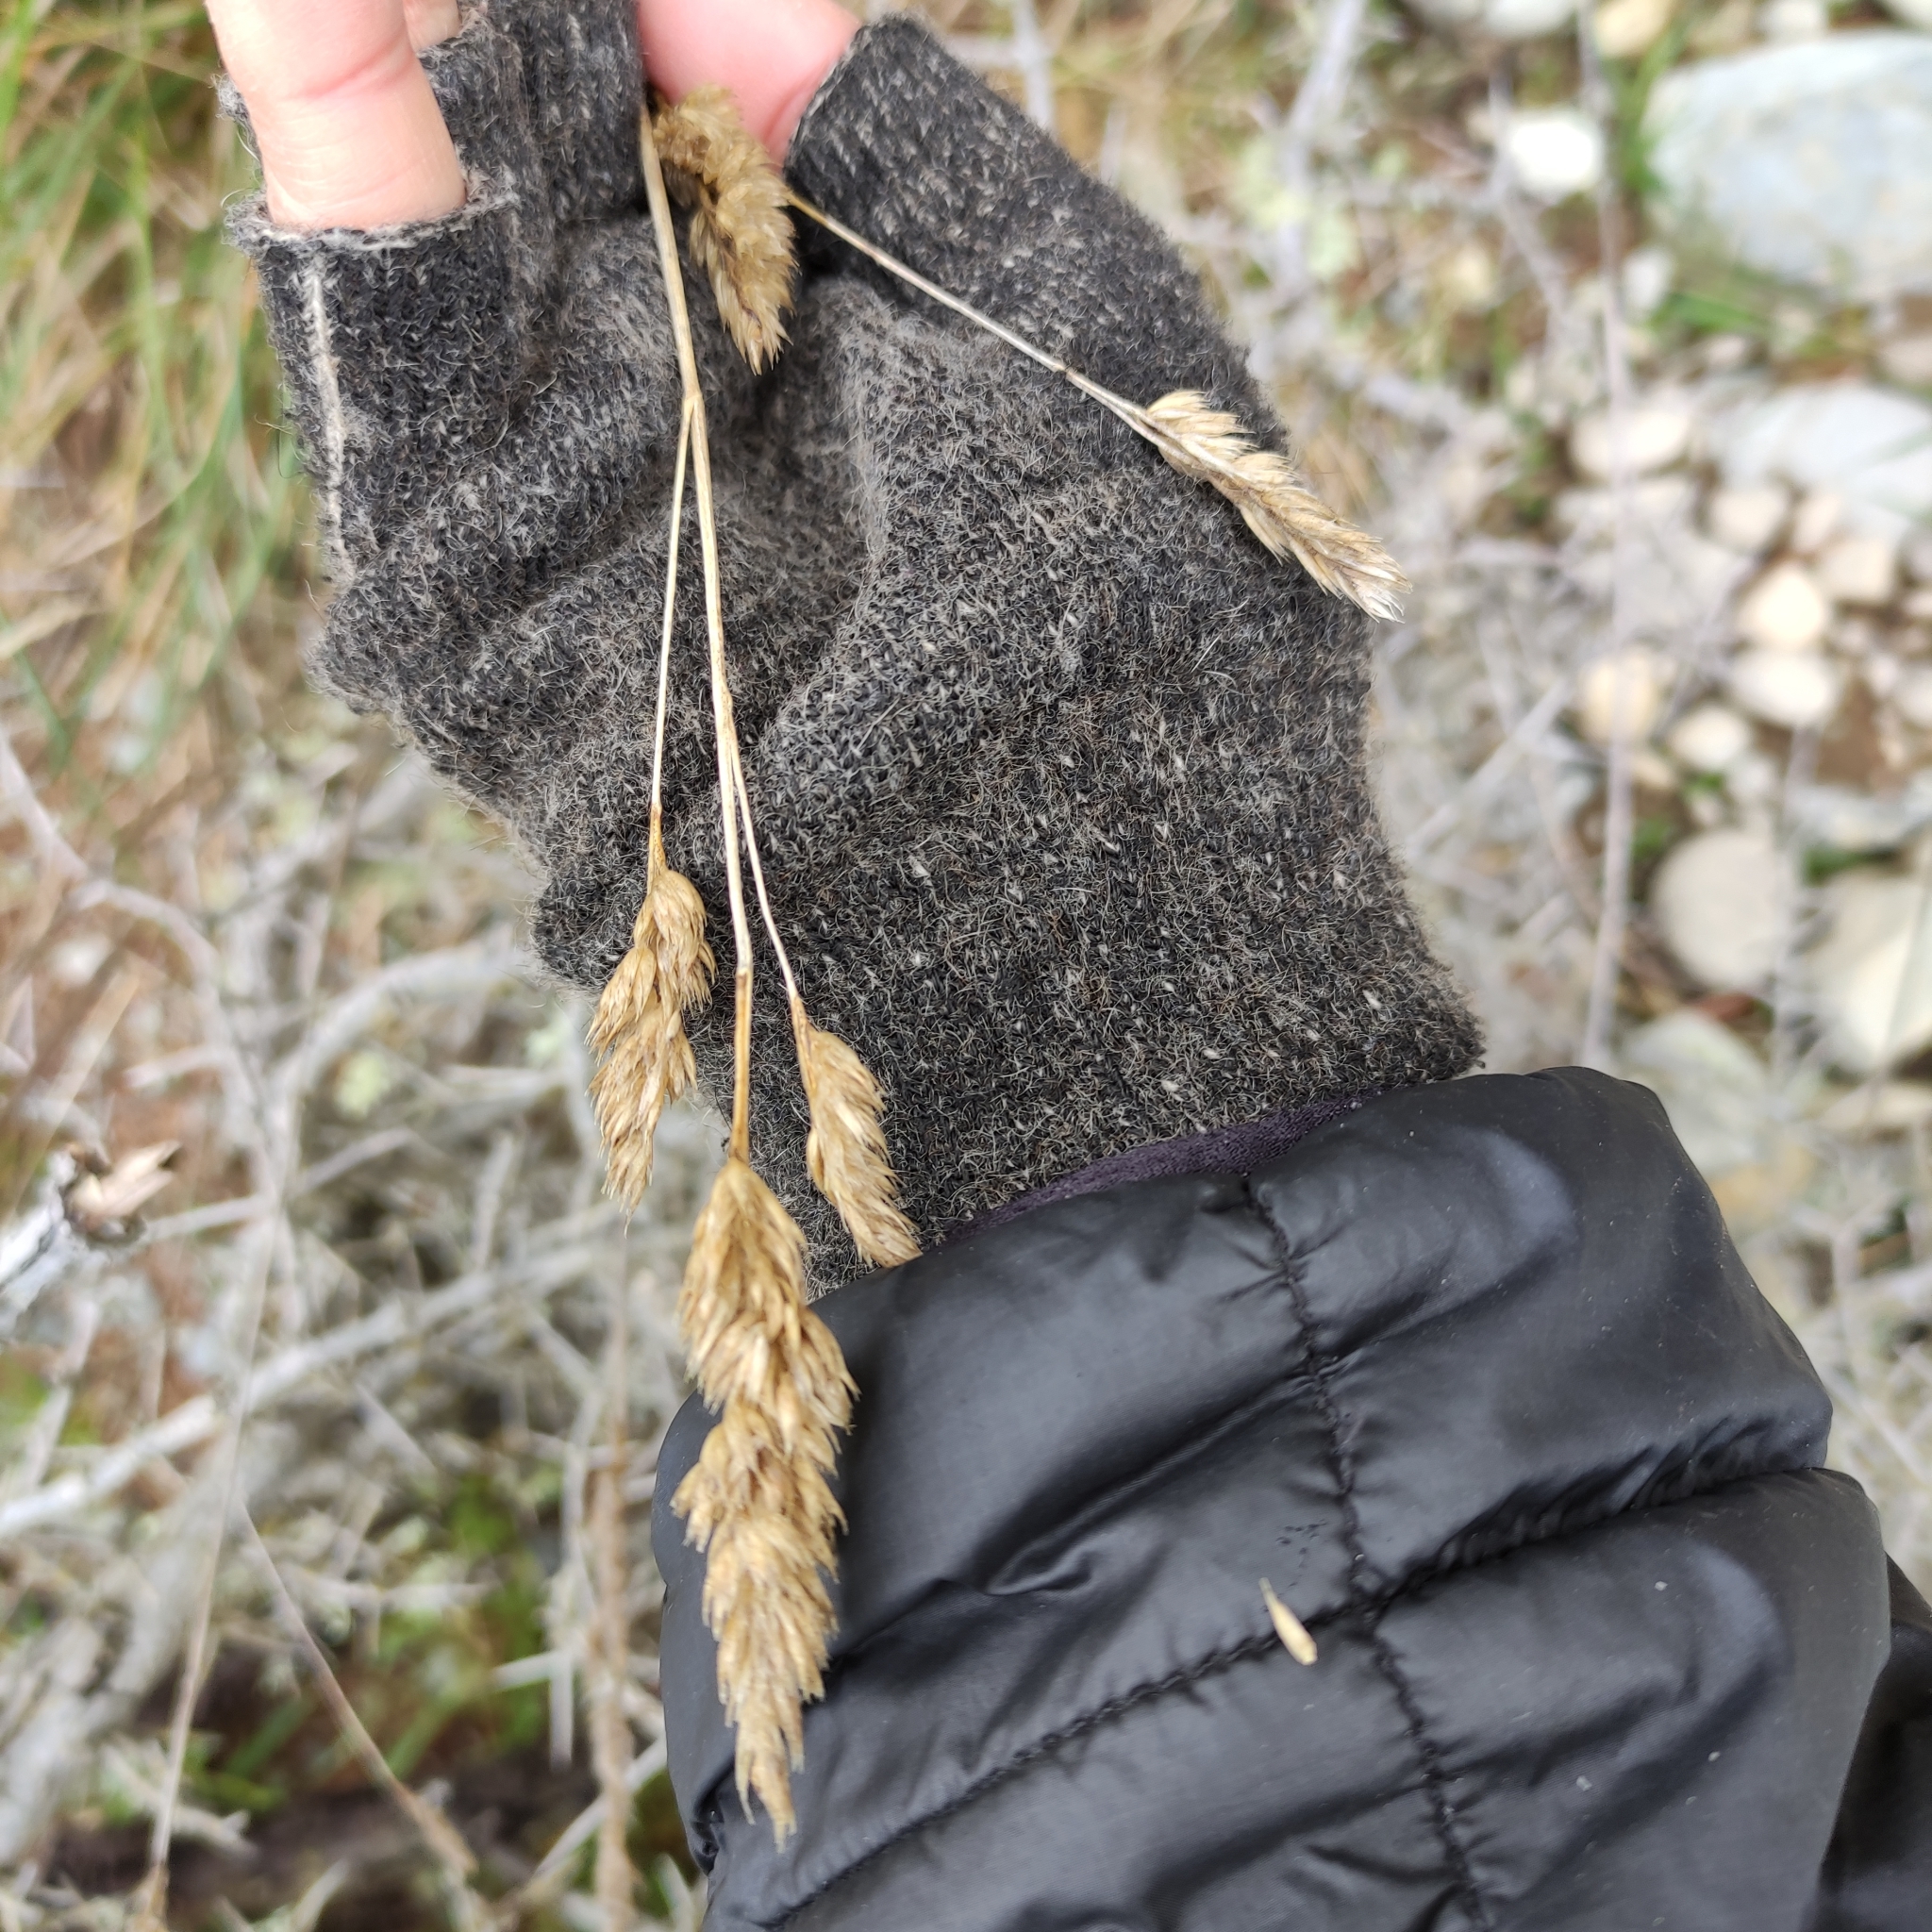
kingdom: Plantae
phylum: Tracheophyta
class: Liliopsida
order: Poales
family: Poaceae
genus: Dactylis
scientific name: Dactylis glomerata
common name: Orchardgrass
